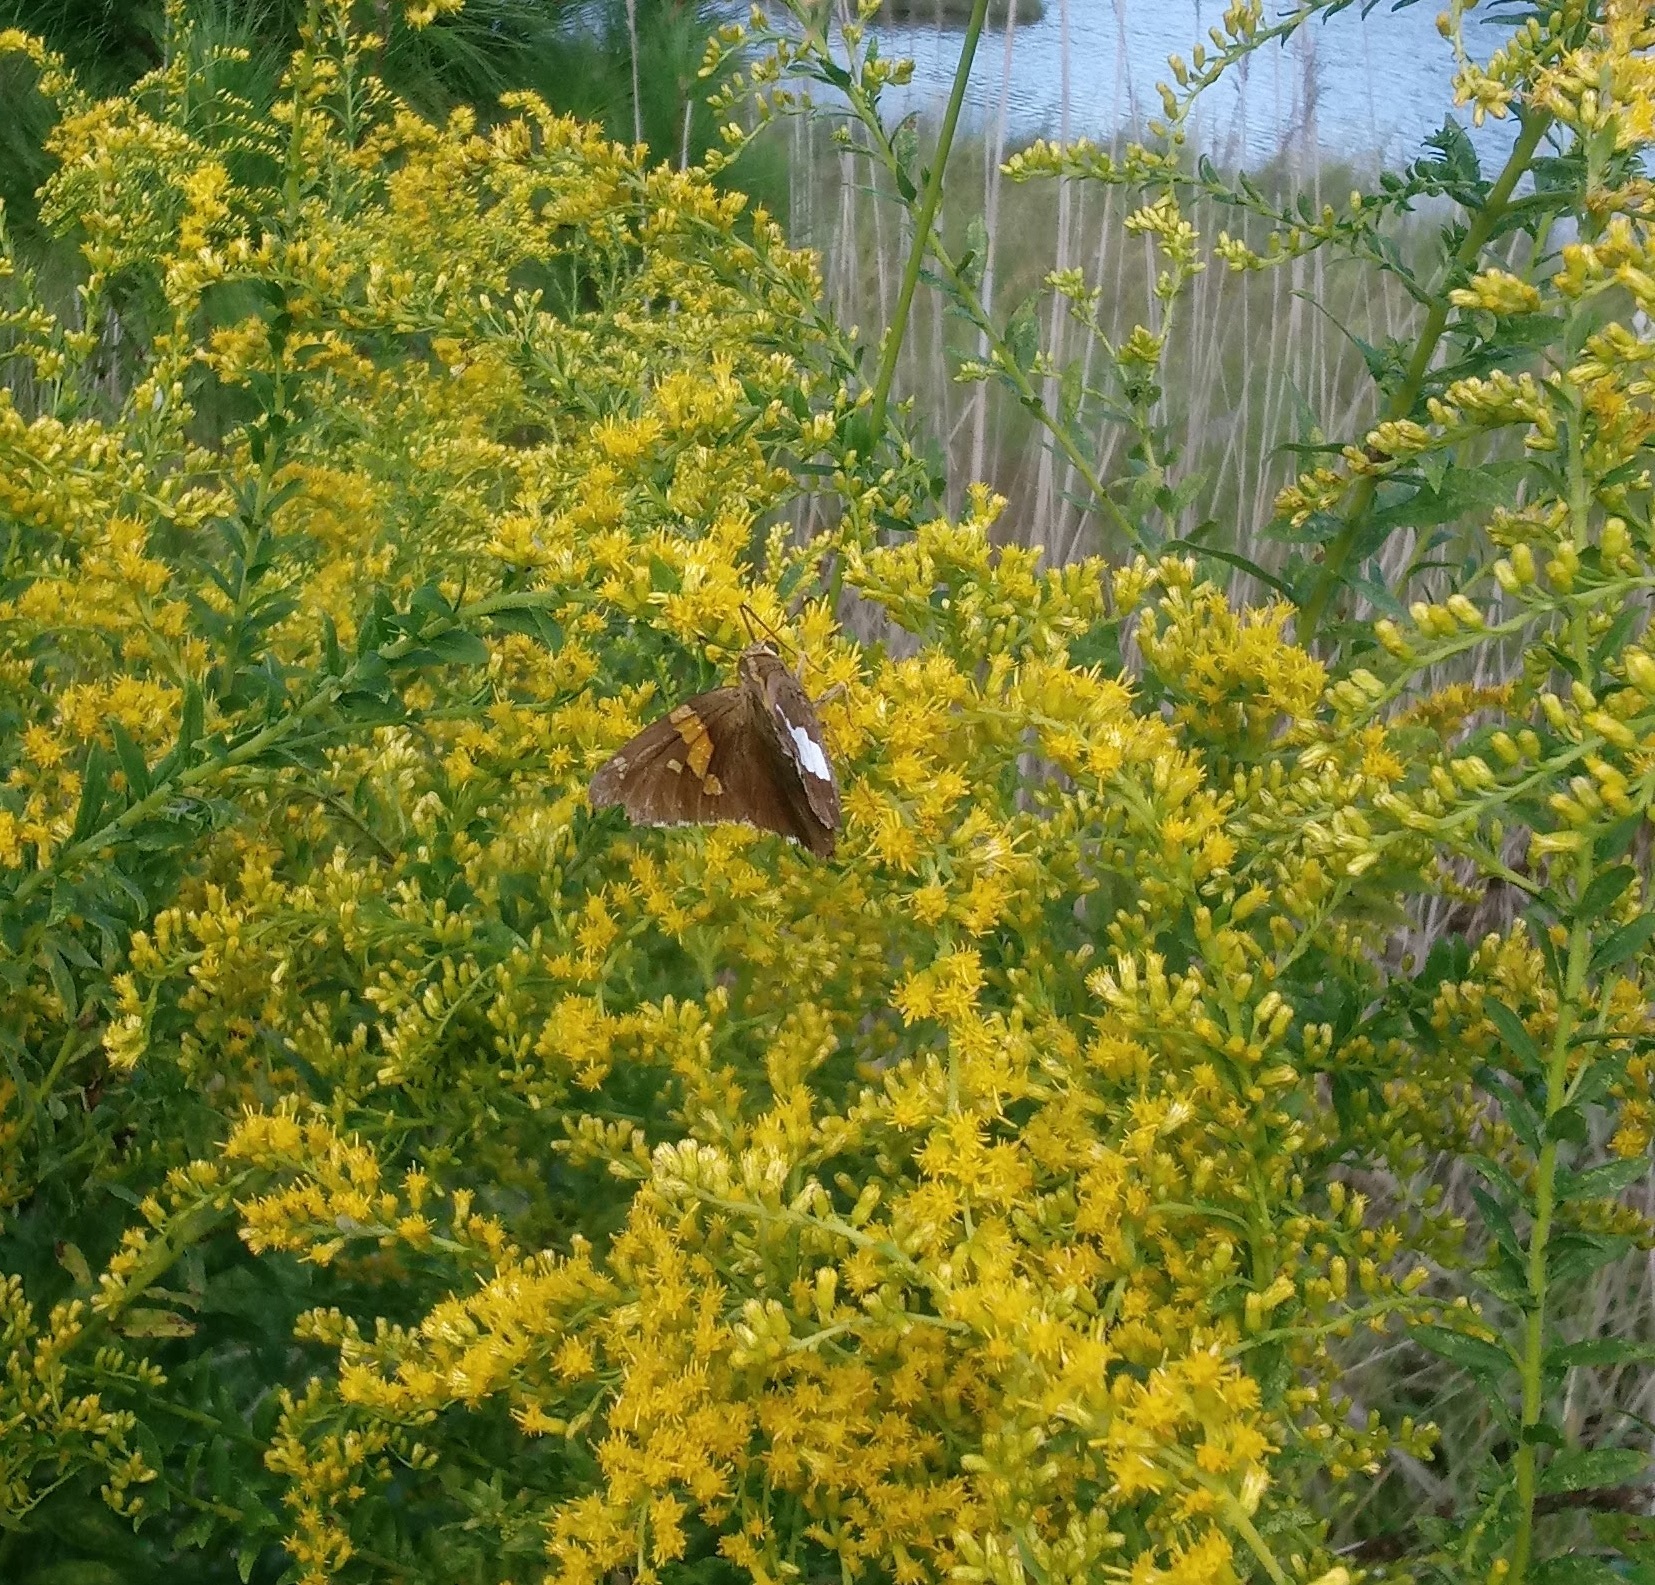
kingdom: Animalia
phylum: Arthropoda
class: Insecta
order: Lepidoptera
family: Hesperiidae
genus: Epargyreus
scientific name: Epargyreus clarus
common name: Silver-spotted skipper
